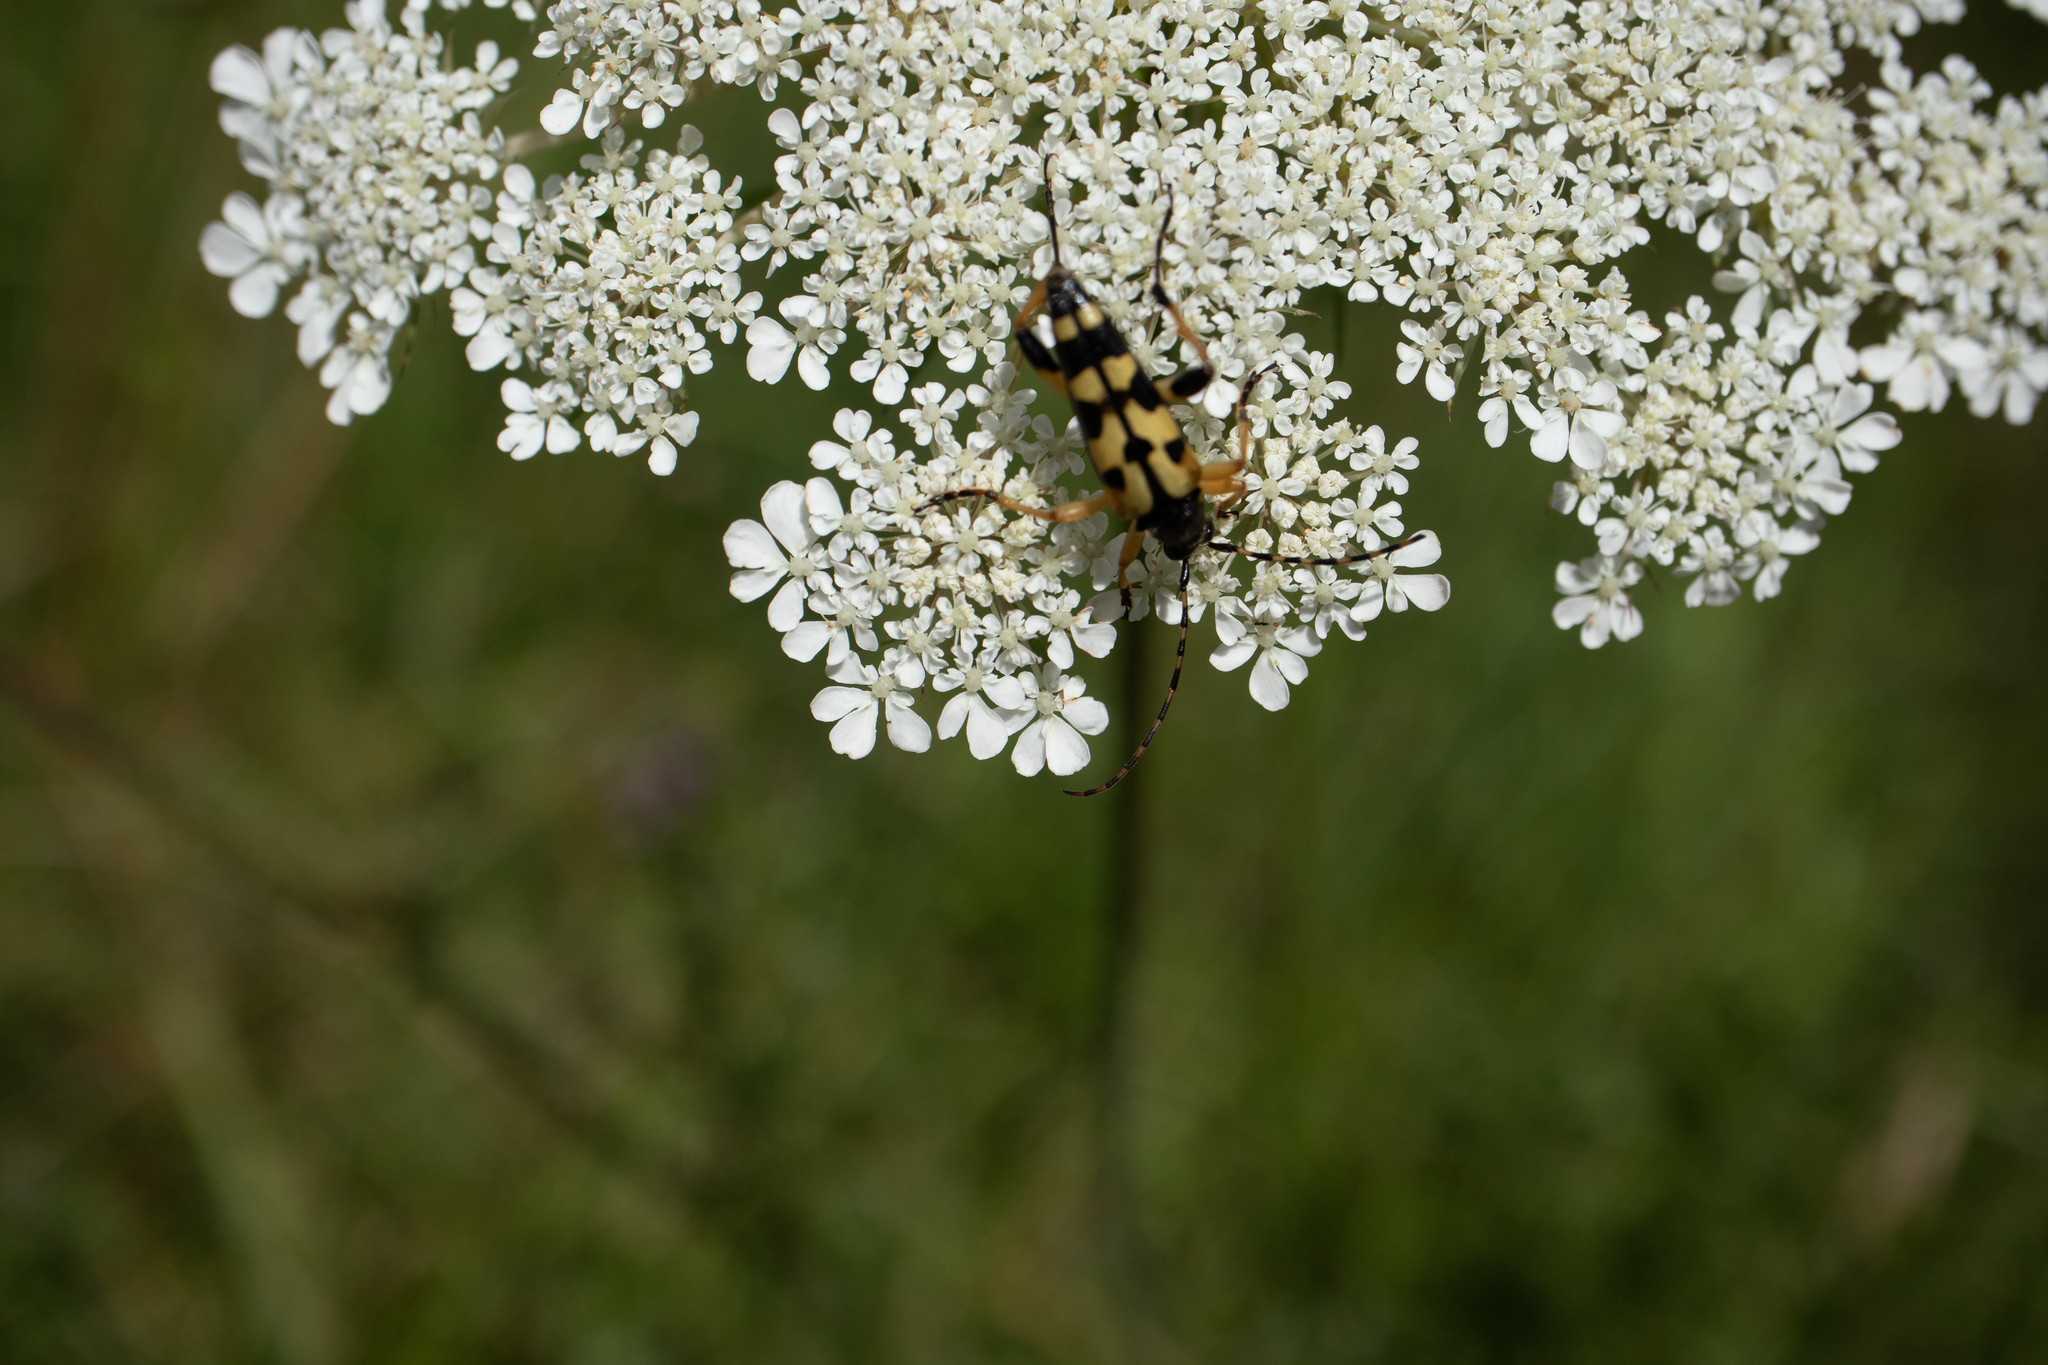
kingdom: Animalia
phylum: Arthropoda
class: Insecta
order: Coleoptera
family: Cerambycidae
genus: Rutpela
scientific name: Rutpela maculata
